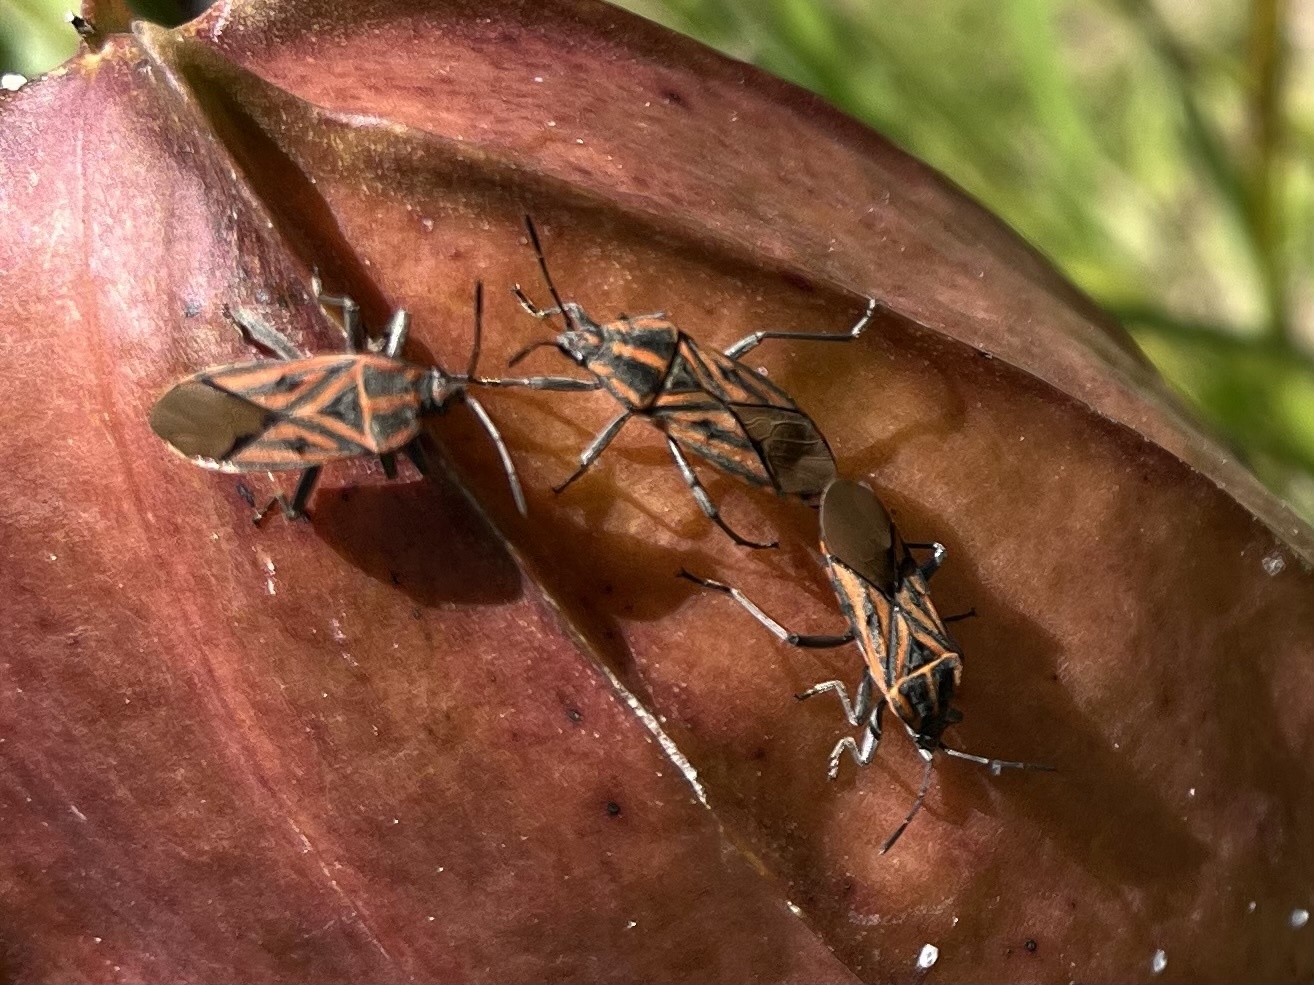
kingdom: Animalia
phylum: Arthropoda
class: Insecta
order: Hemiptera
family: Lygaeidae
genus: Spilostethus
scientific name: Spilostethus rivularis
